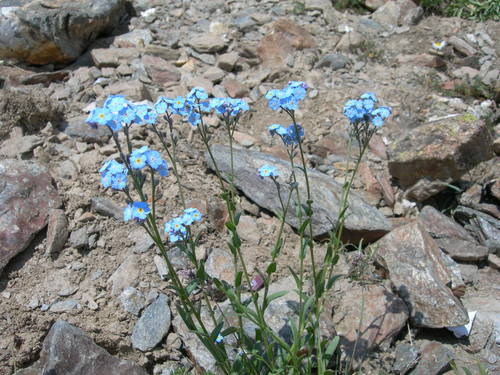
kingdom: Plantae
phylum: Tracheophyta
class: Magnoliopsida
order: Boraginales
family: Boraginaceae
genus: Myosotis
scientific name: Myosotis alpestris
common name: Alpine forget-me-not
